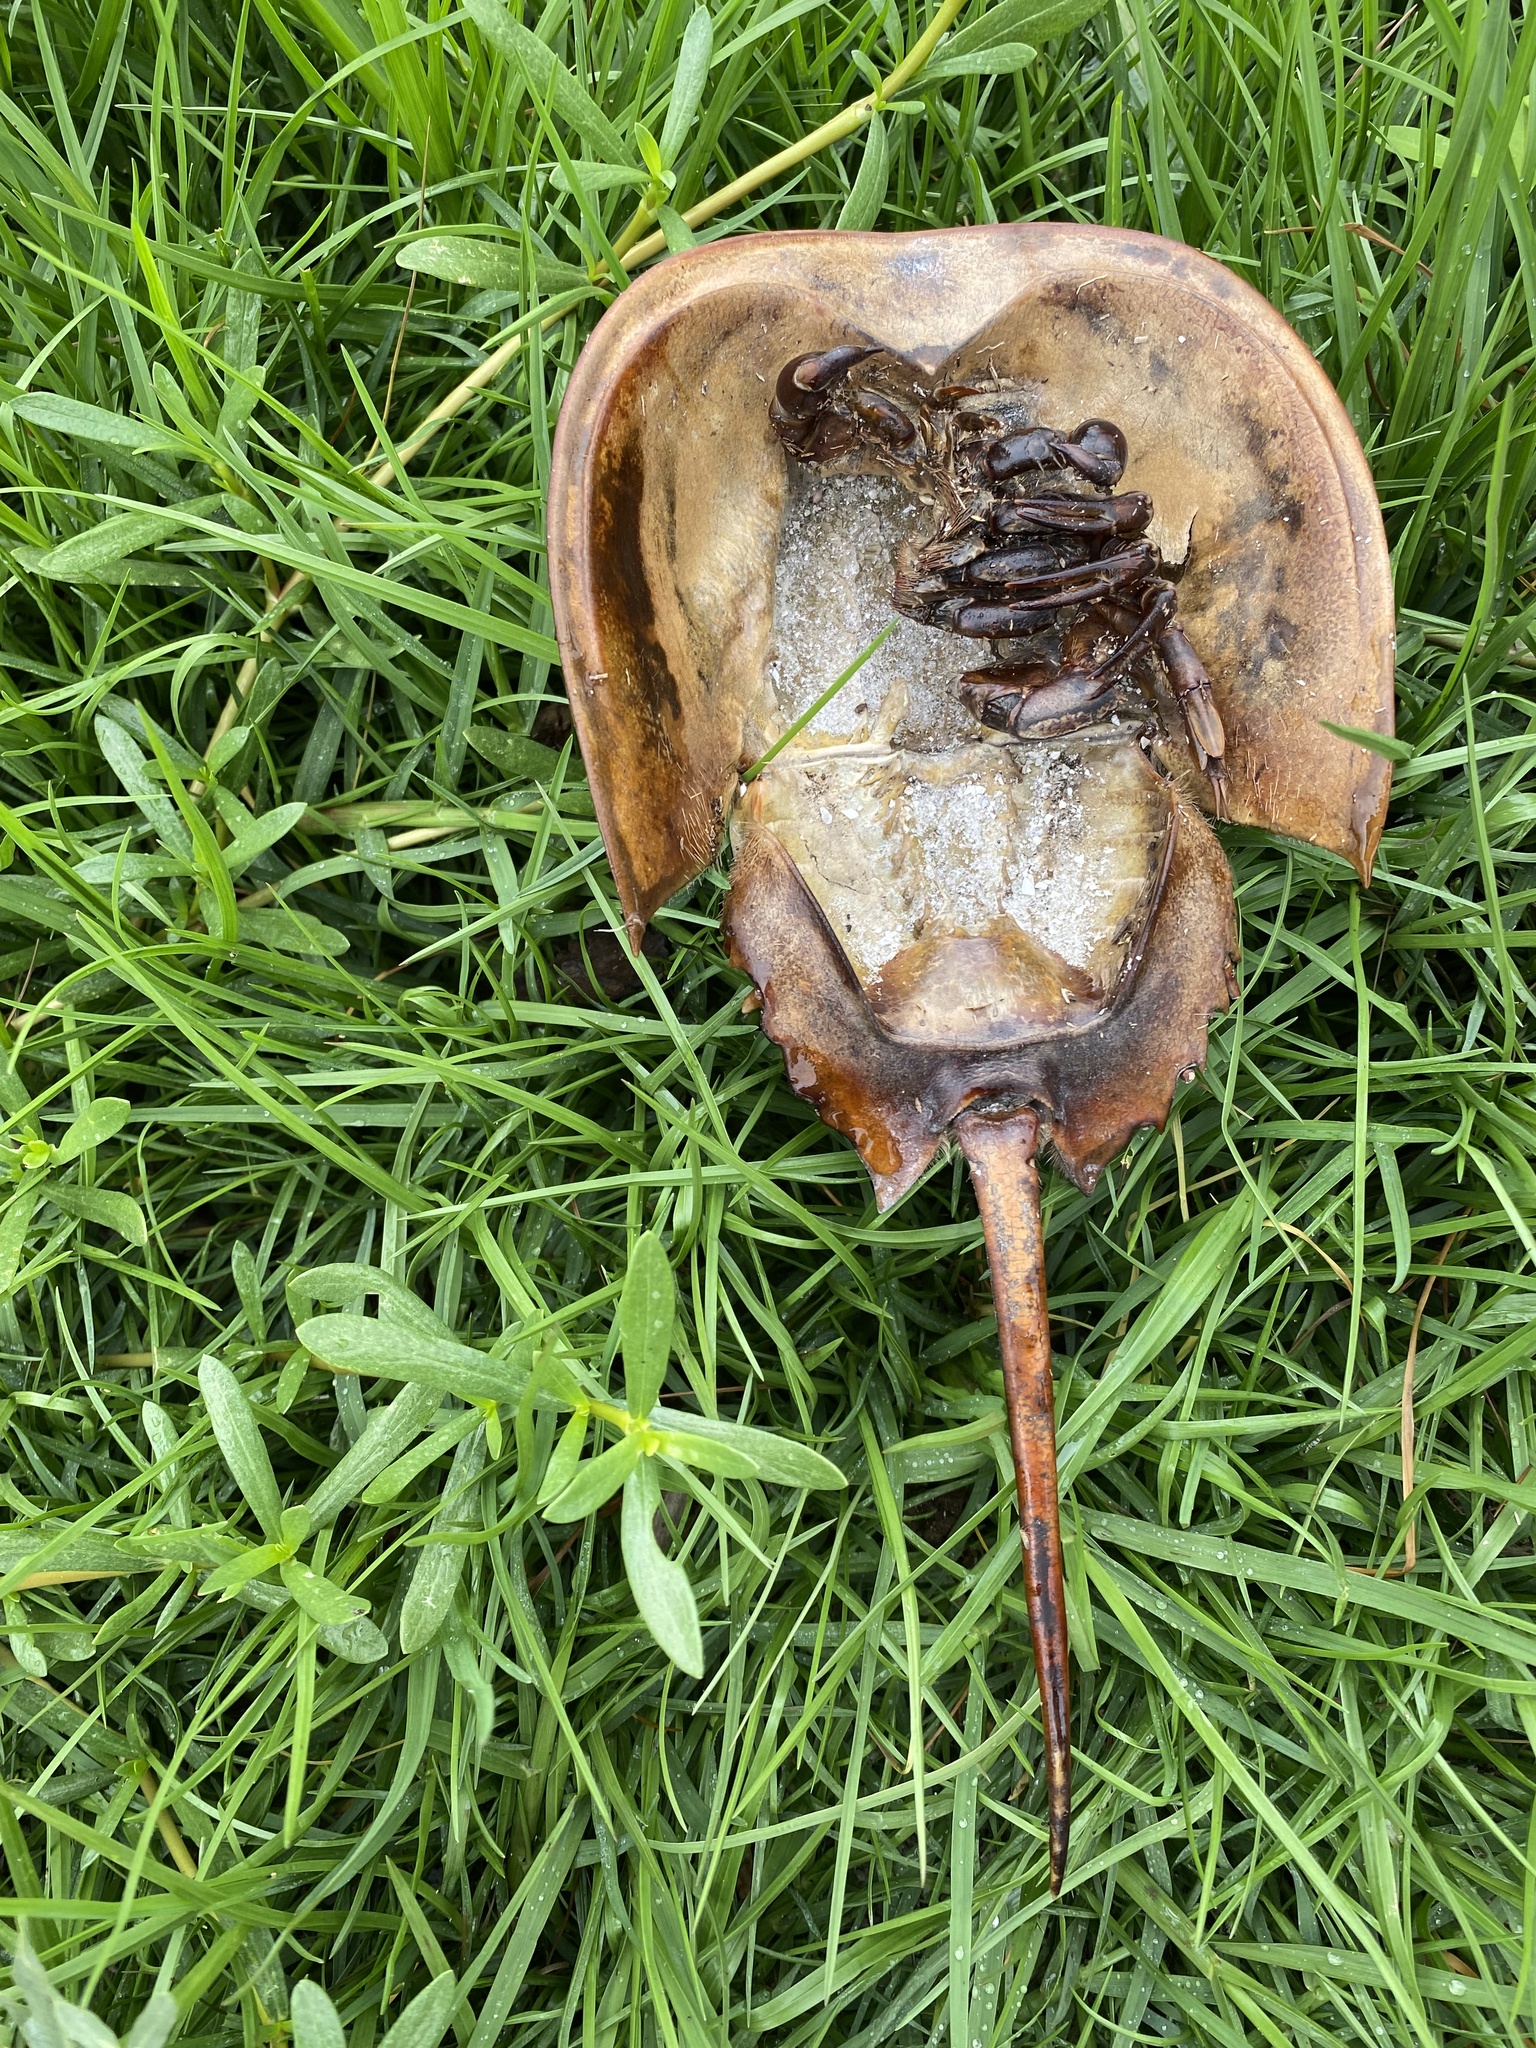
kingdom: Animalia
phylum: Arthropoda
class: Merostomata
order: Xiphosurida
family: Limulidae
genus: Limulus
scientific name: Limulus polyphemus
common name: Horseshoe crab
